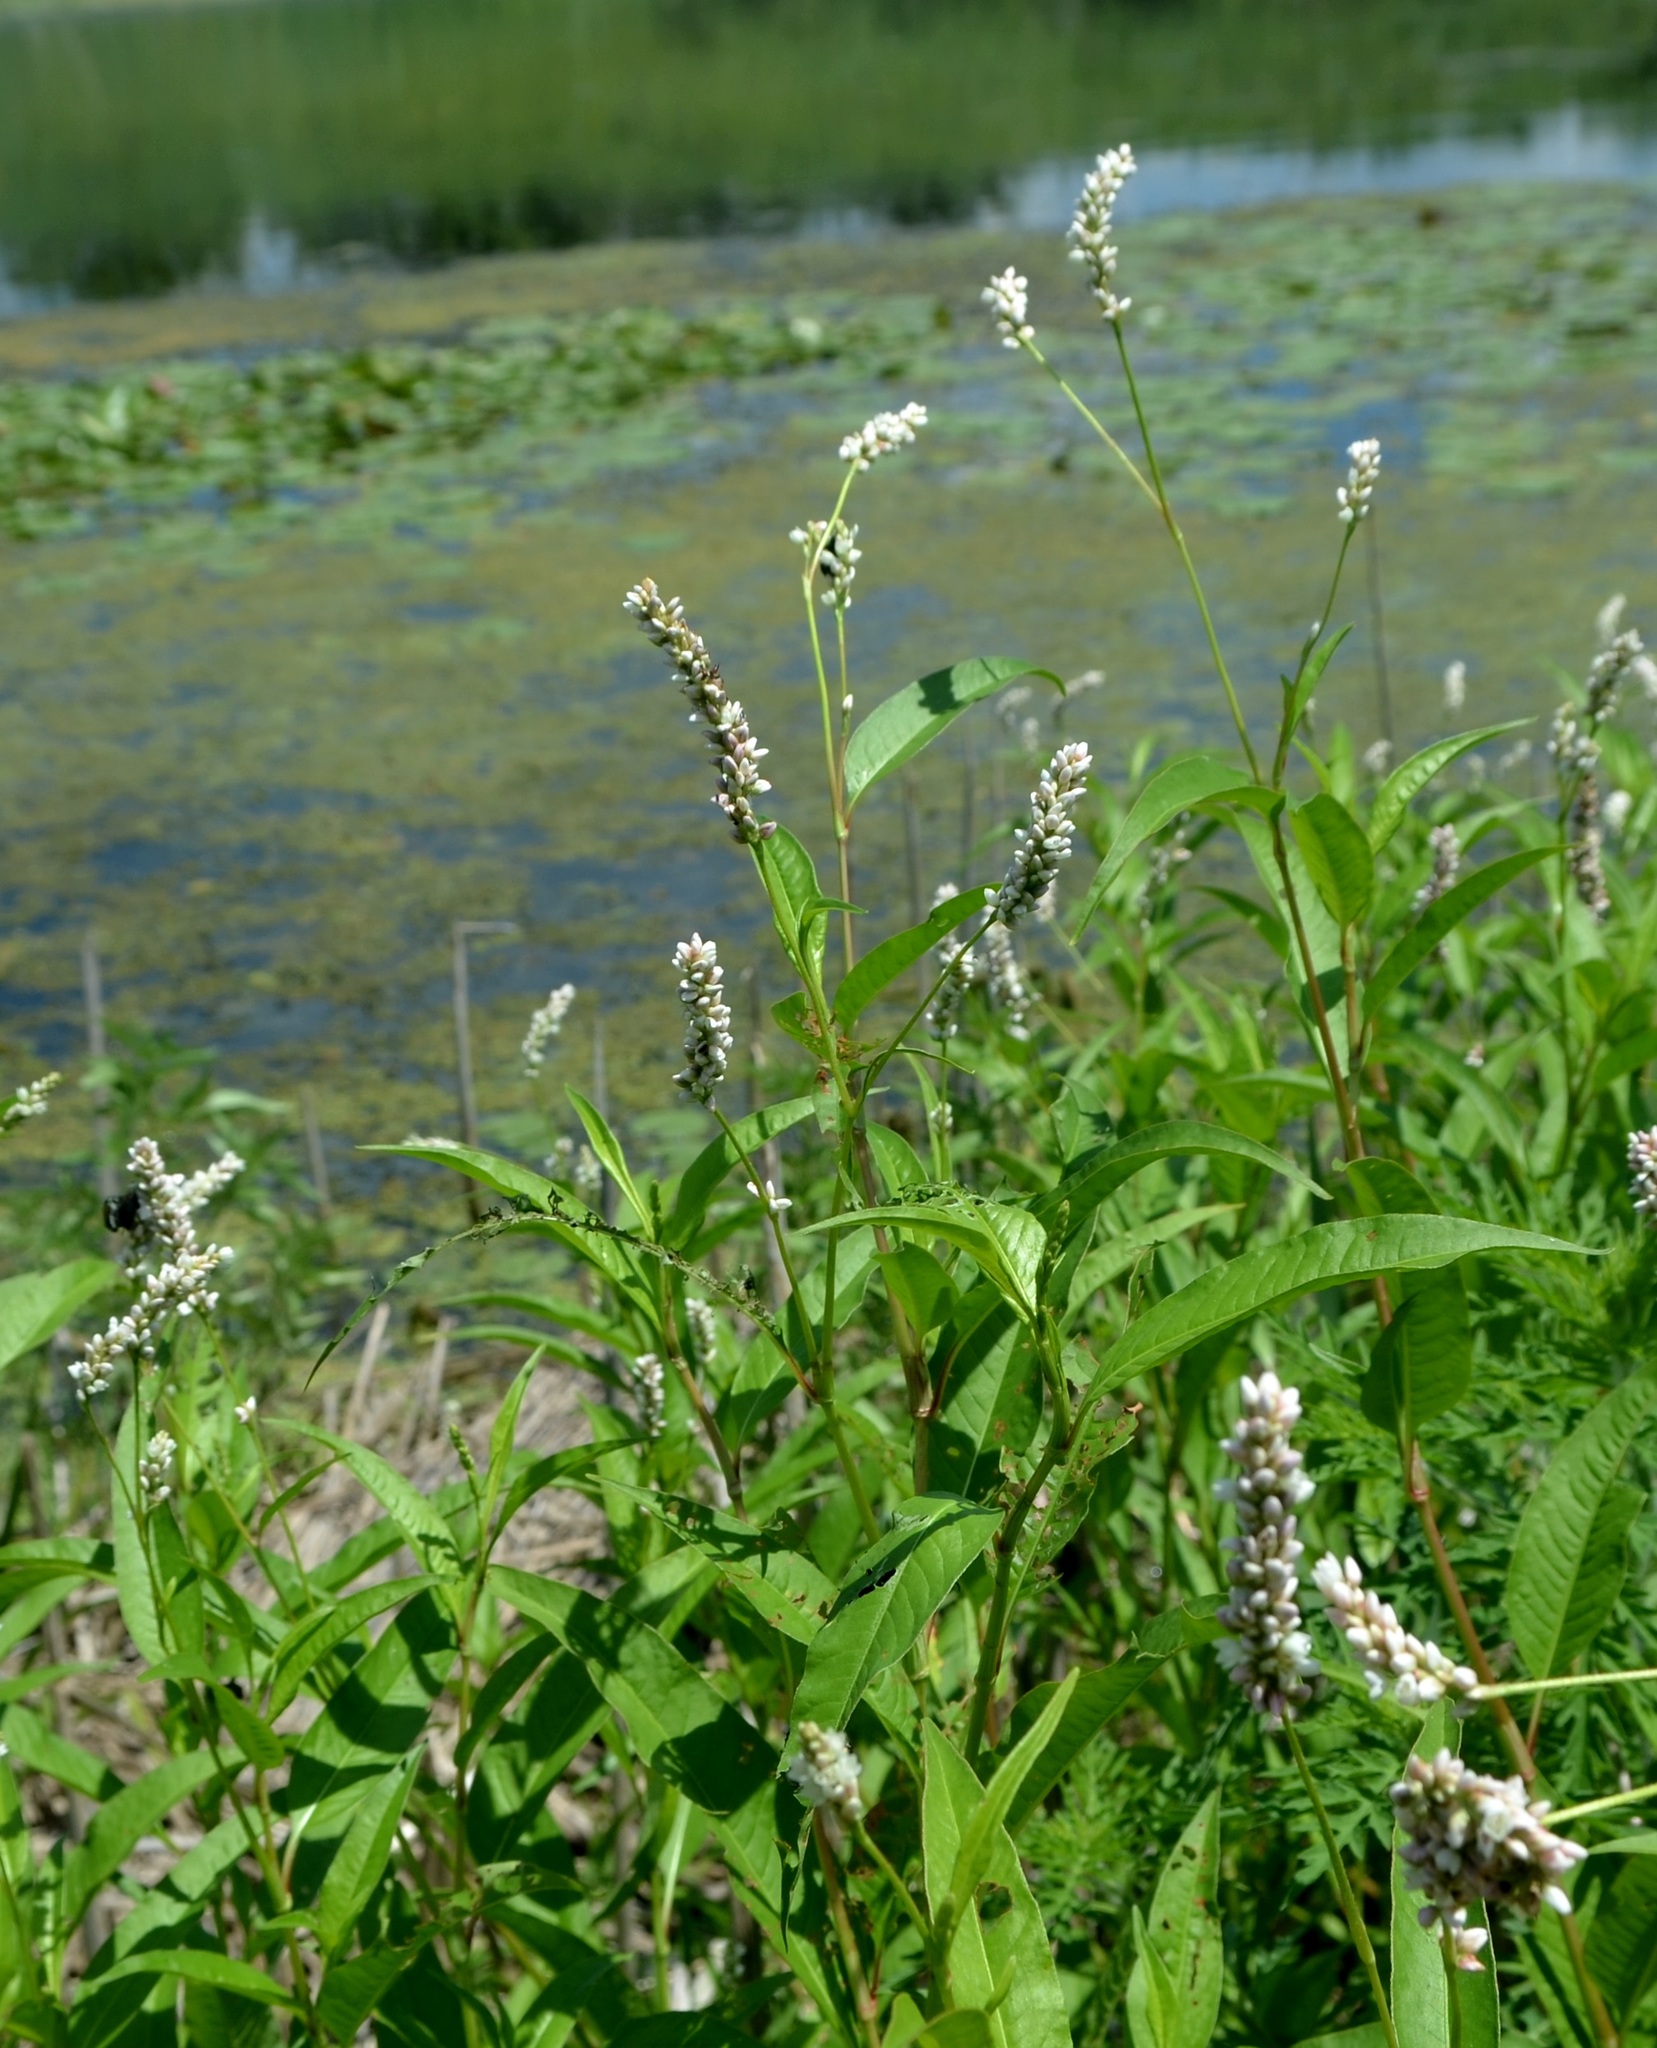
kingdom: Plantae
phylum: Tracheophyta
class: Magnoliopsida
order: Caryophyllales
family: Polygonaceae
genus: Persicaria
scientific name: Persicaria pensylvanica
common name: Pinkweed
